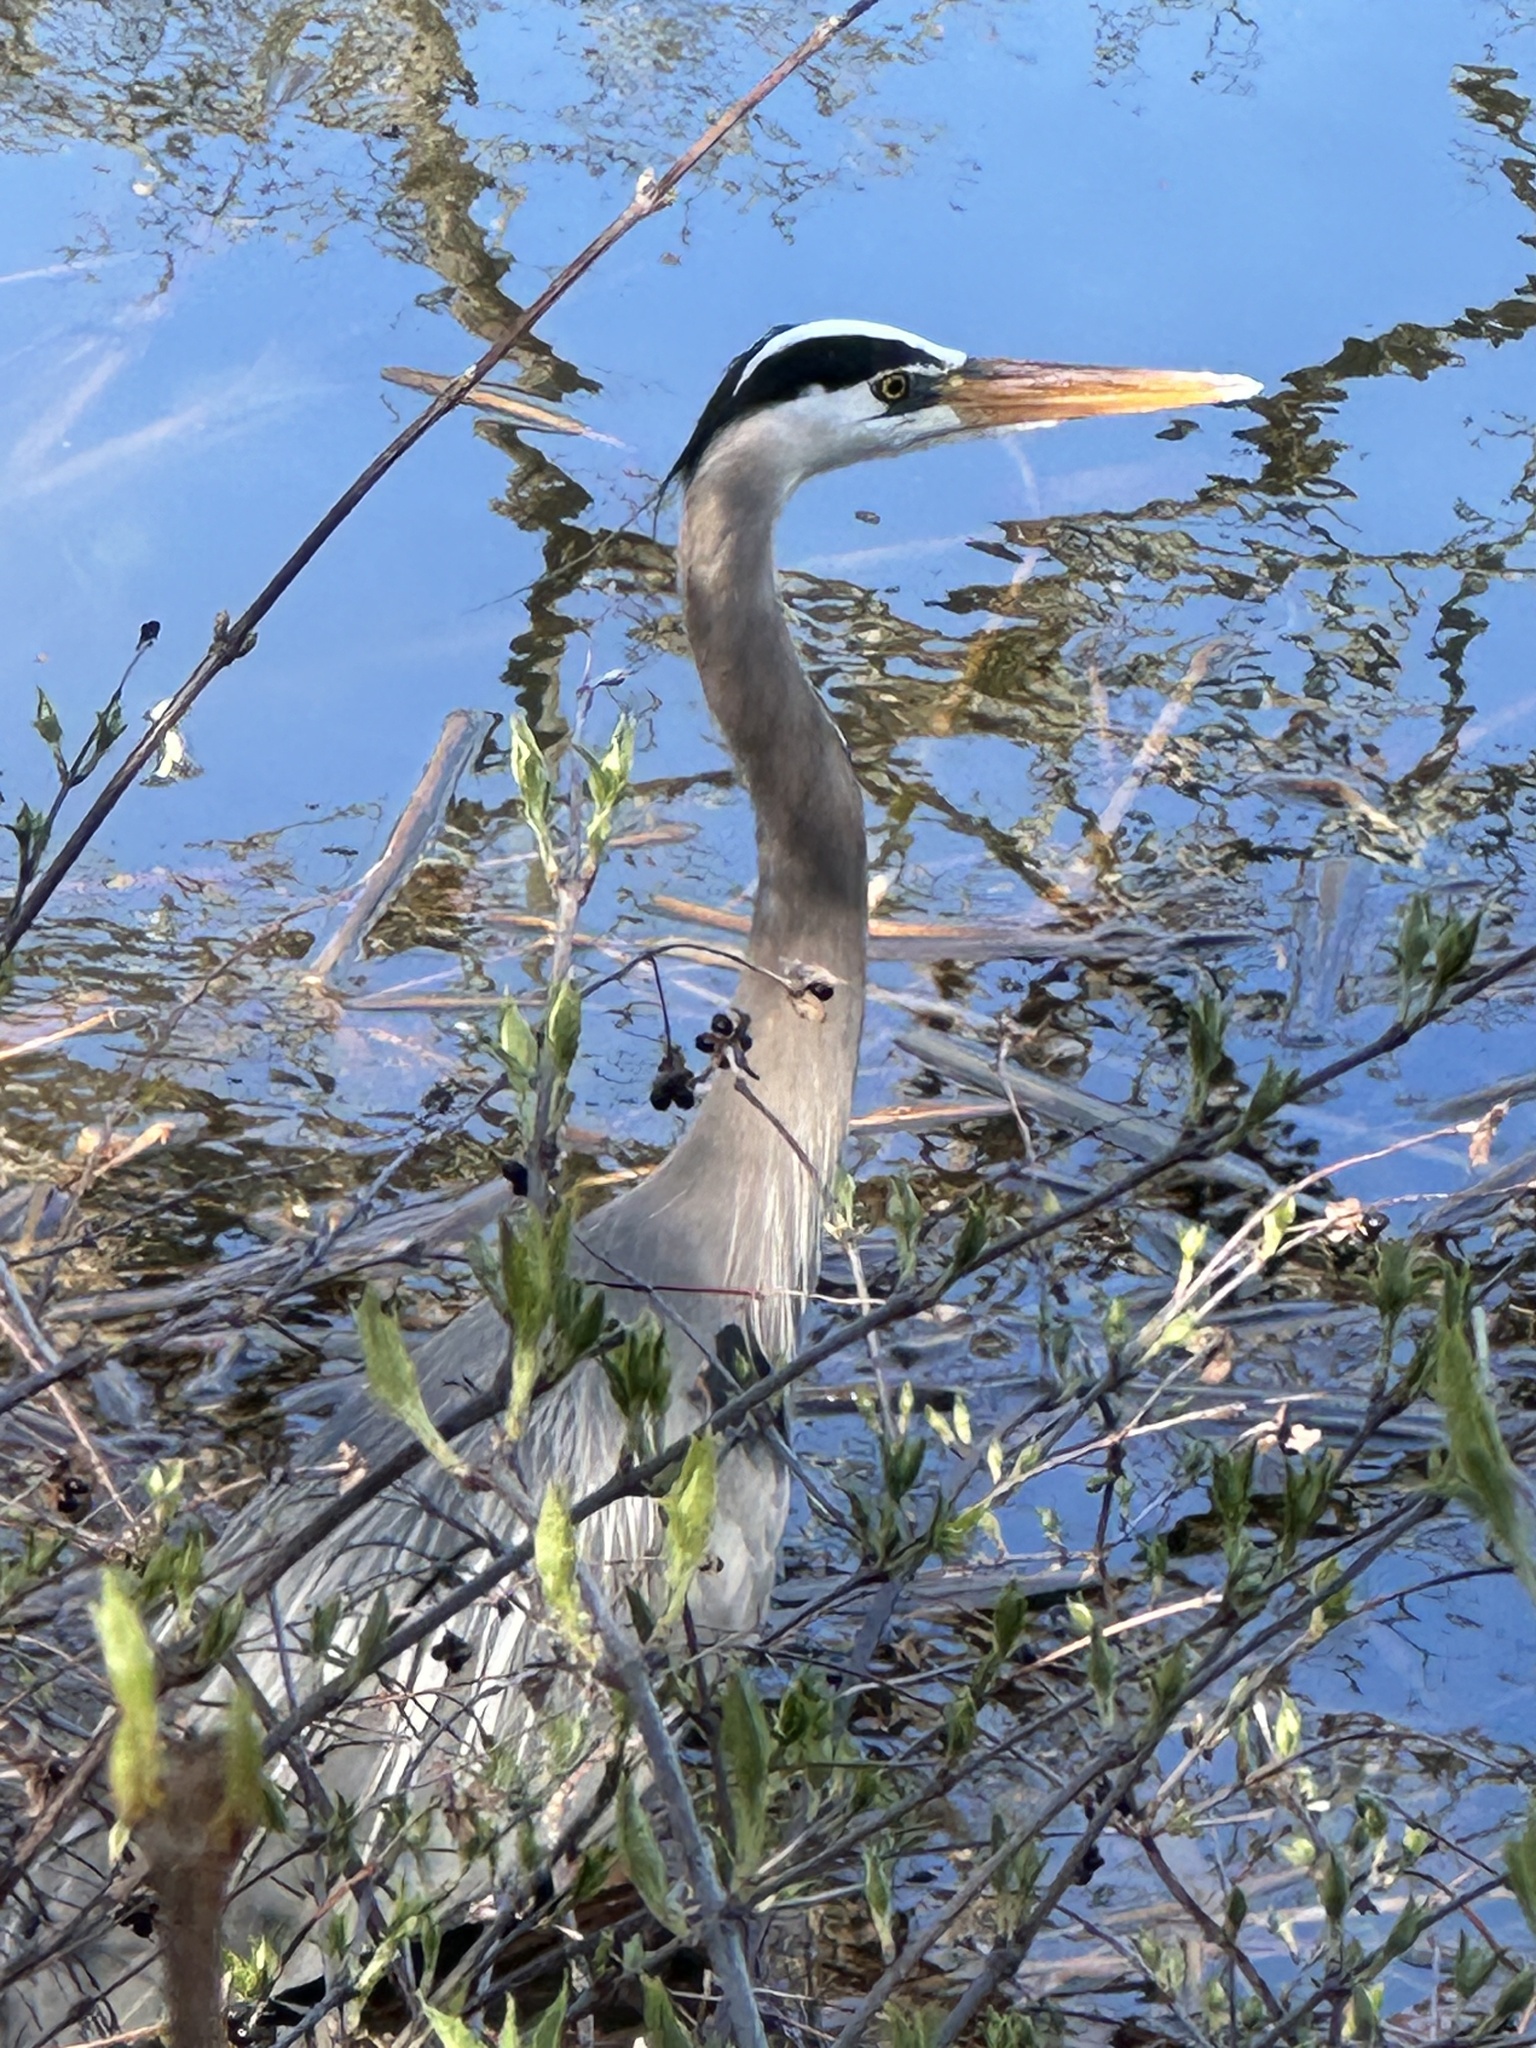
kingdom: Animalia
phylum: Chordata
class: Aves
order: Pelecaniformes
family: Ardeidae
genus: Ardea
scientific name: Ardea herodias
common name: Great blue heron
